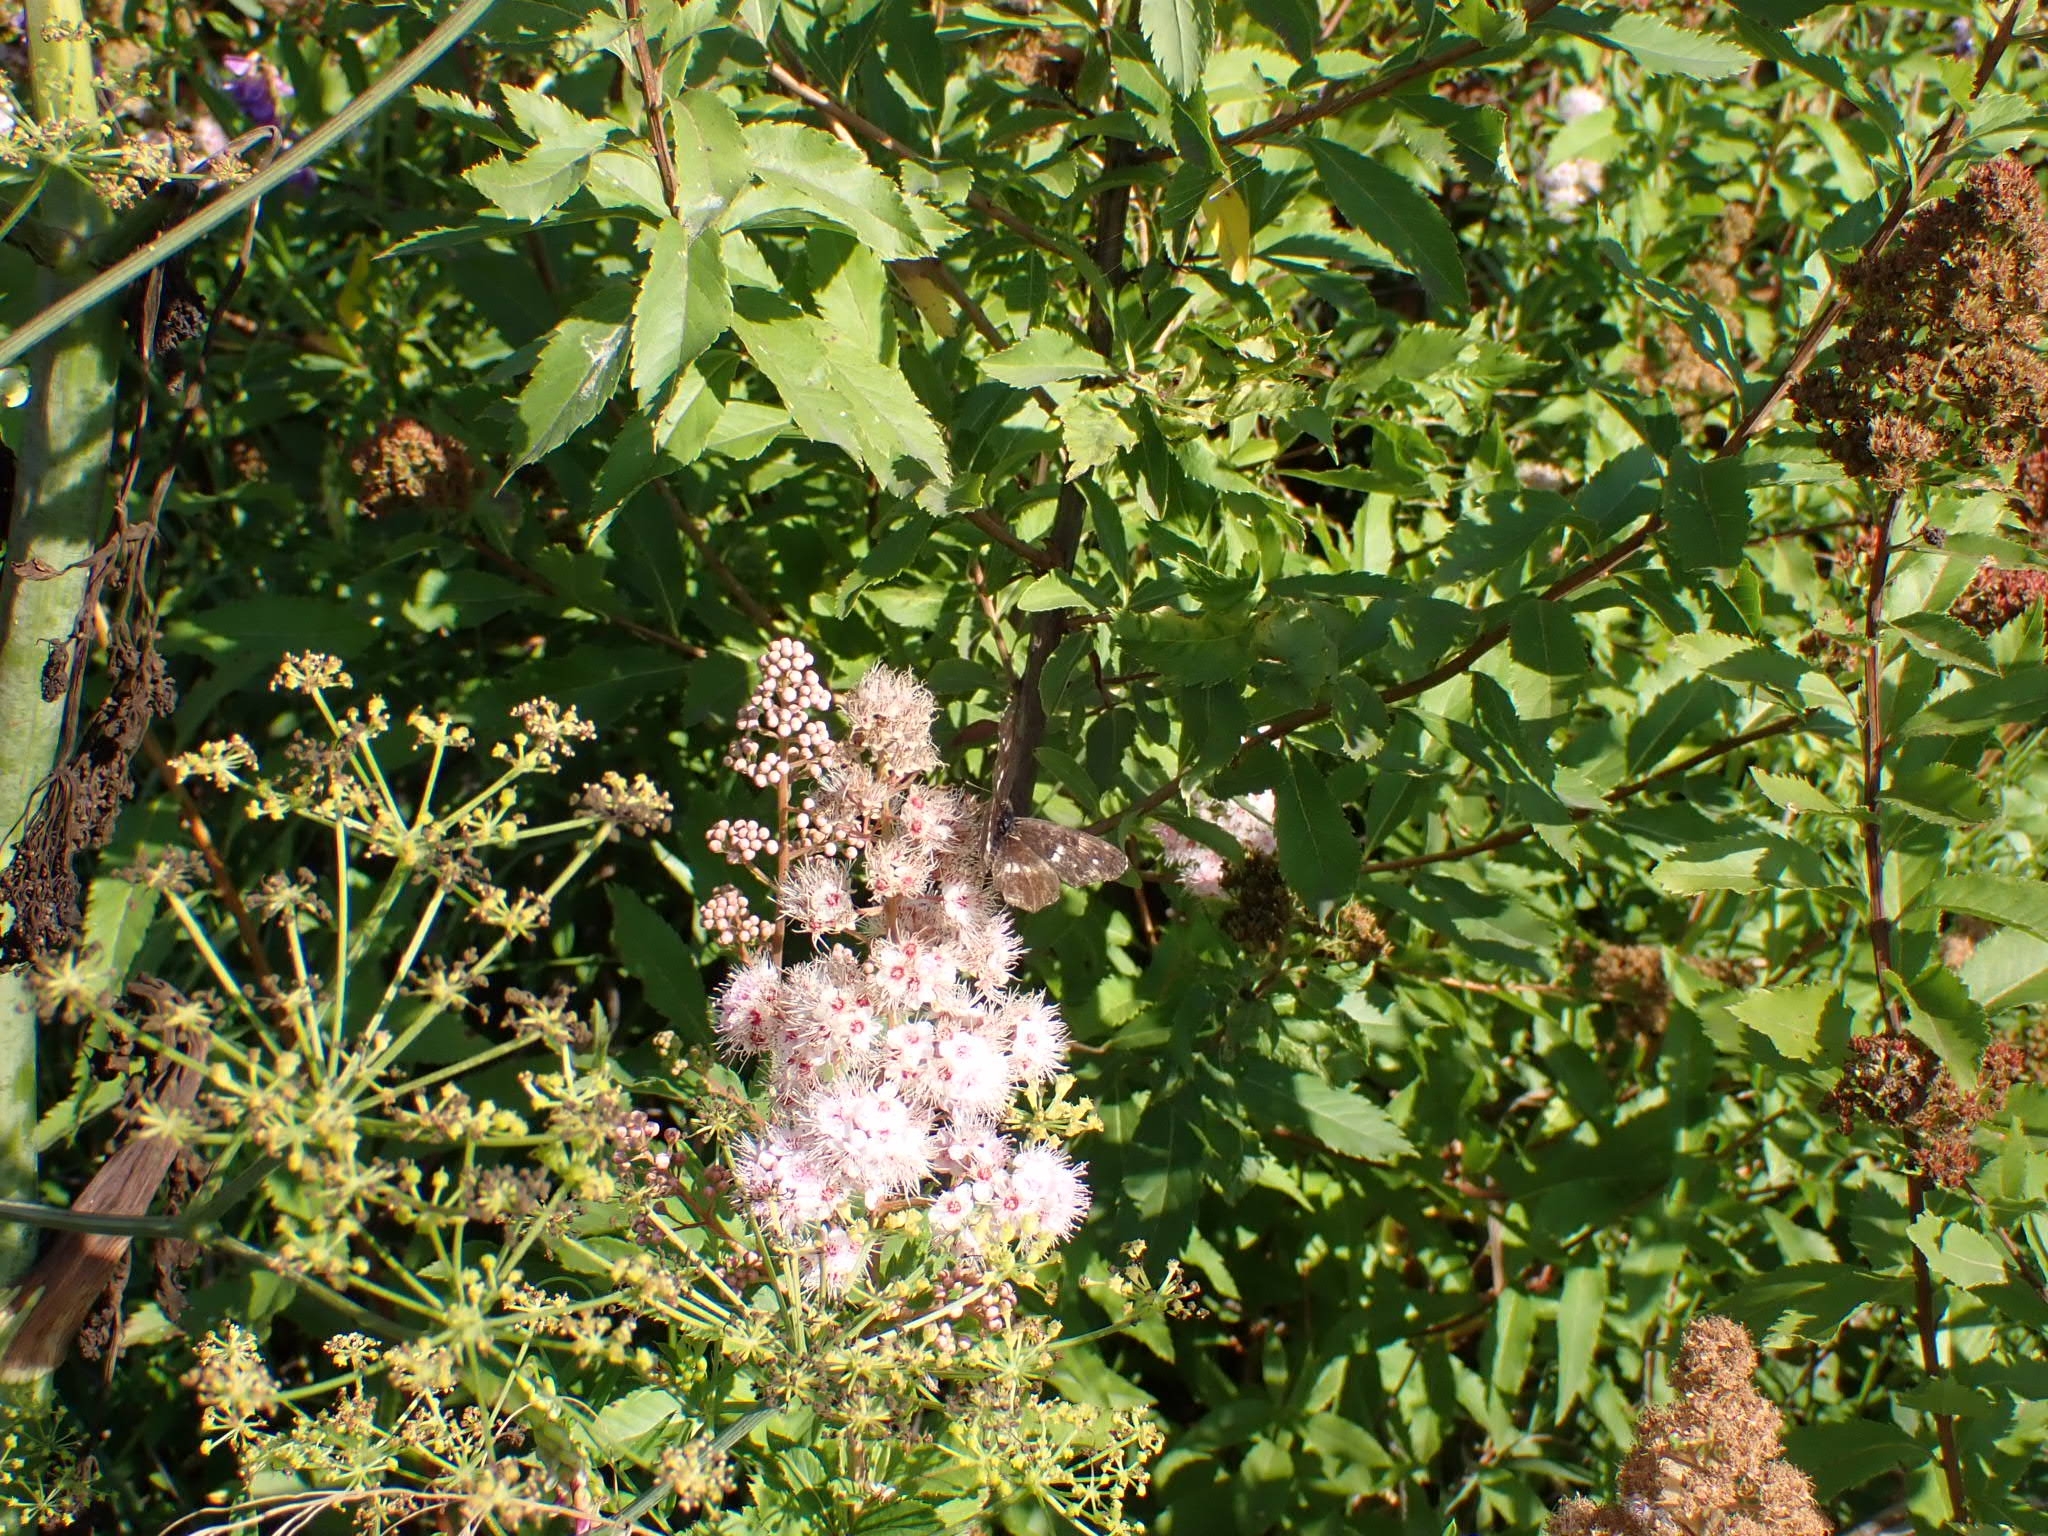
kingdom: Animalia
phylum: Arthropoda
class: Insecta
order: Lepidoptera
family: Nymphalidae
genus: Araschnia
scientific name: Araschnia levana
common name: Map butterfly
